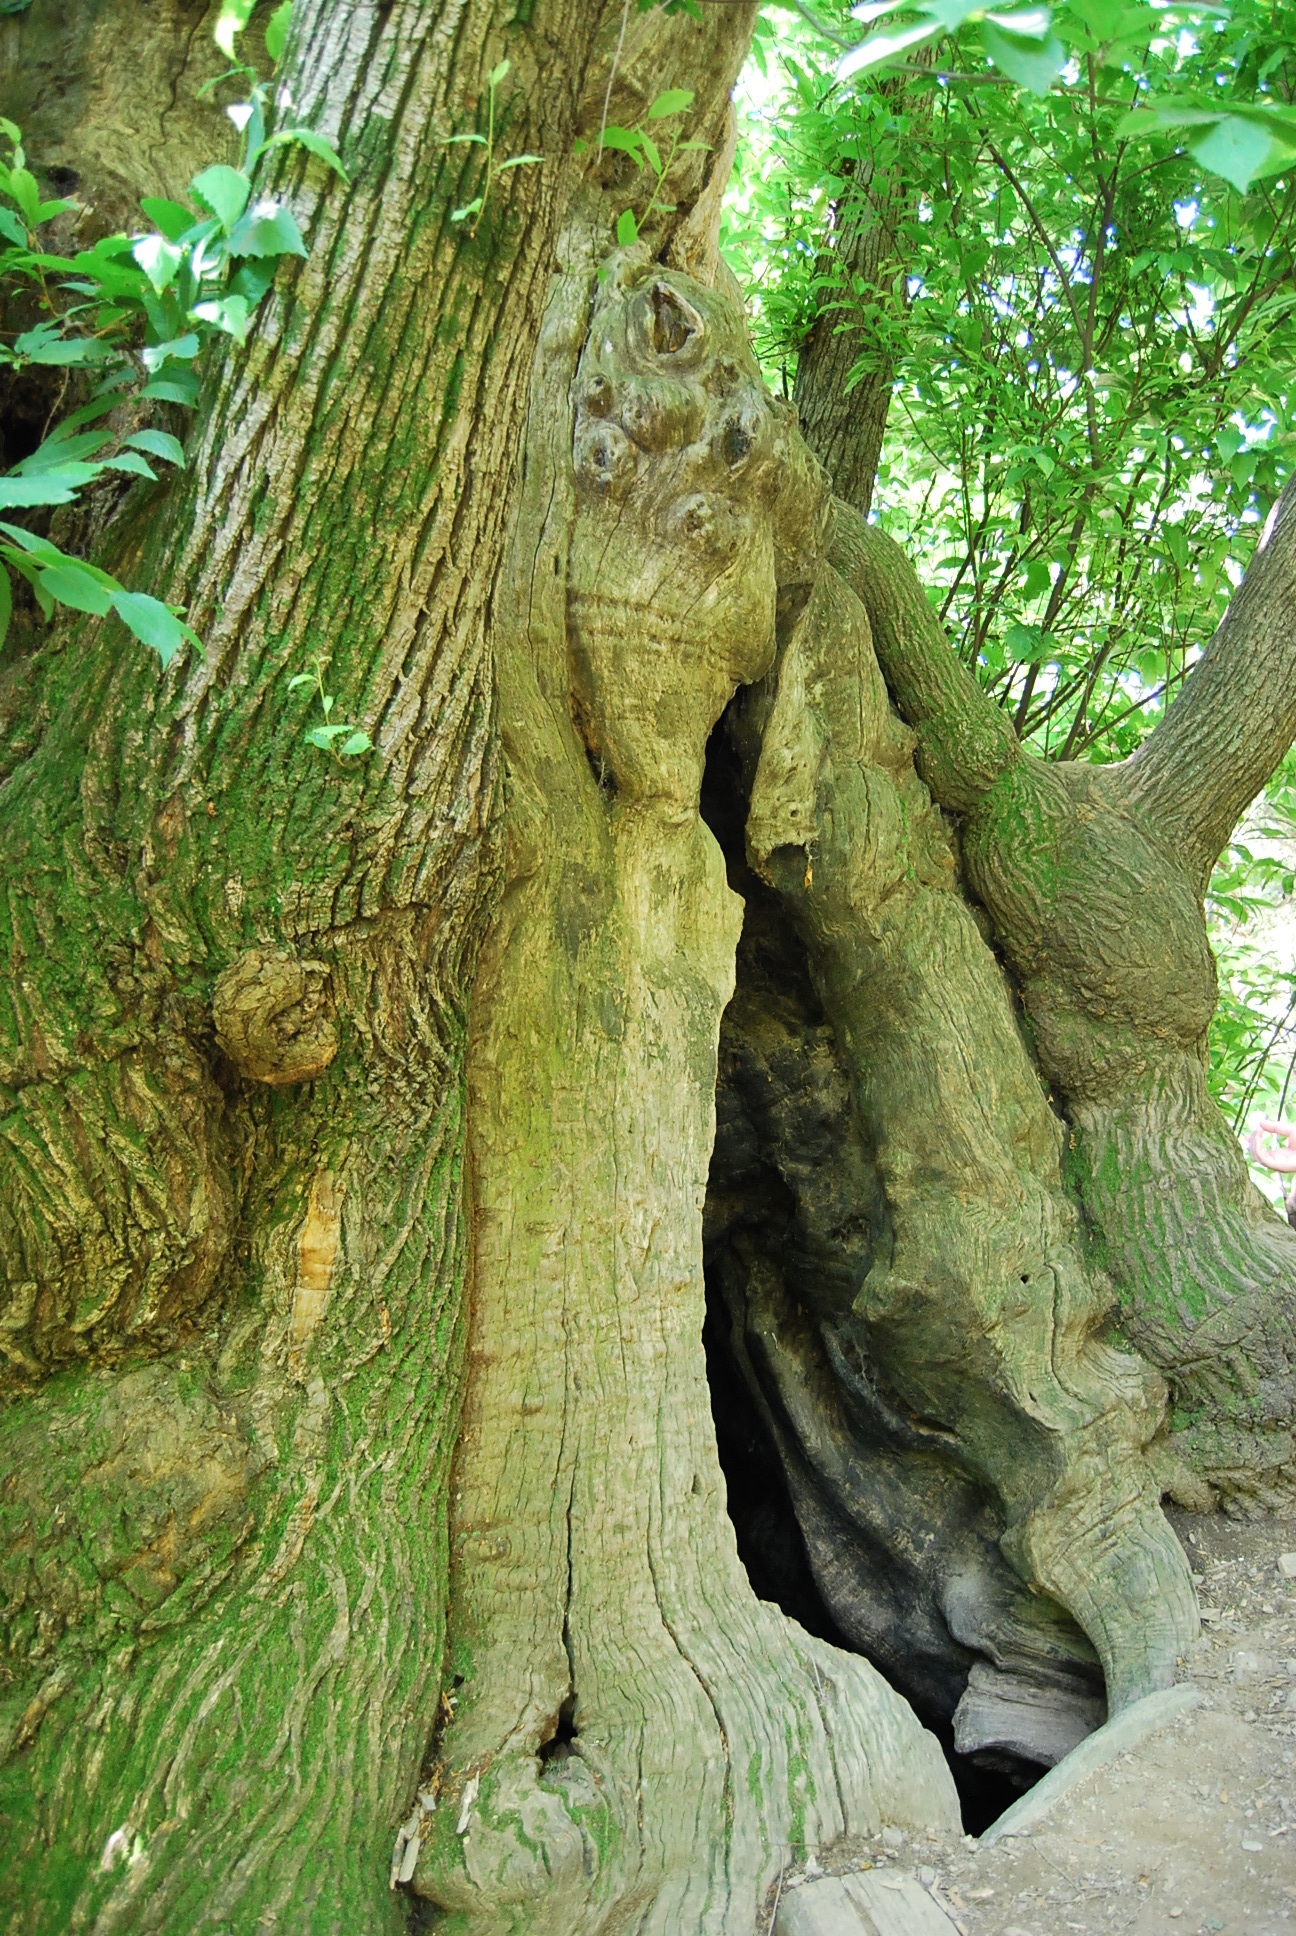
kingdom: Plantae
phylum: Tracheophyta
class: Magnoliopsida
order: Fagales
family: Fagaceae
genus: Castanea
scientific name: Castanea sativa
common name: Sweet chestnut
